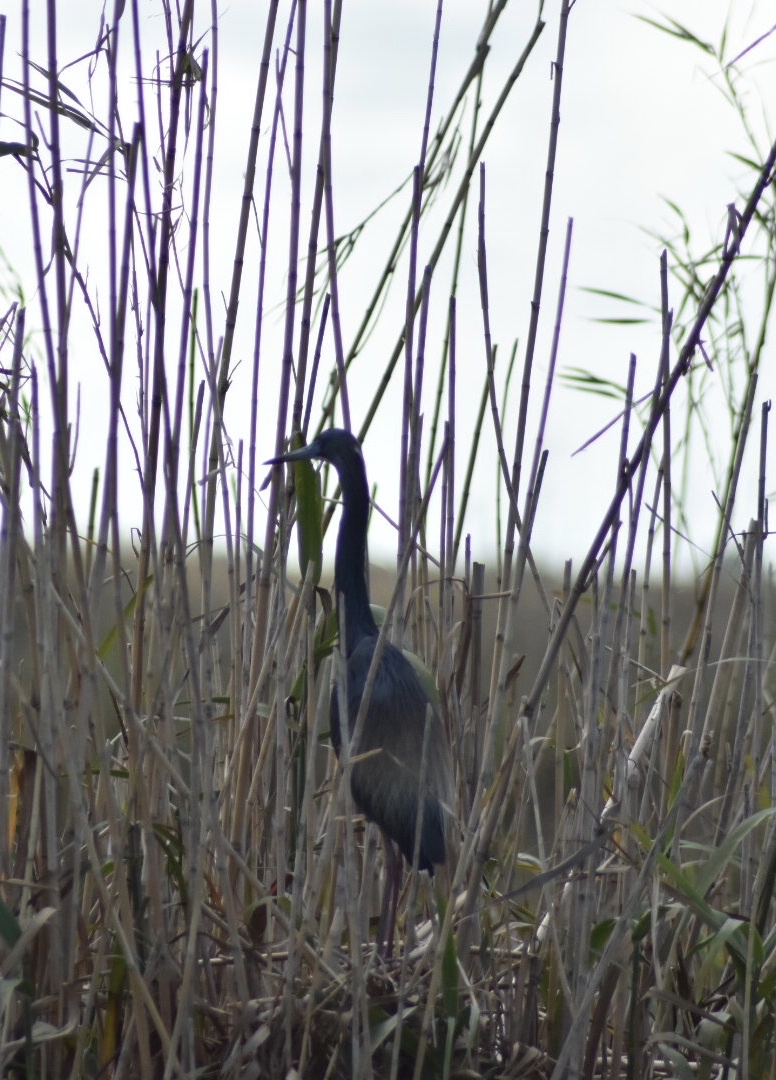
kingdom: Animalia
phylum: Chordata
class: Aves
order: Pelecaniformes
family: Ardeidae
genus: Egretta
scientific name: Egretta tricolor
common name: Tricolored heron
